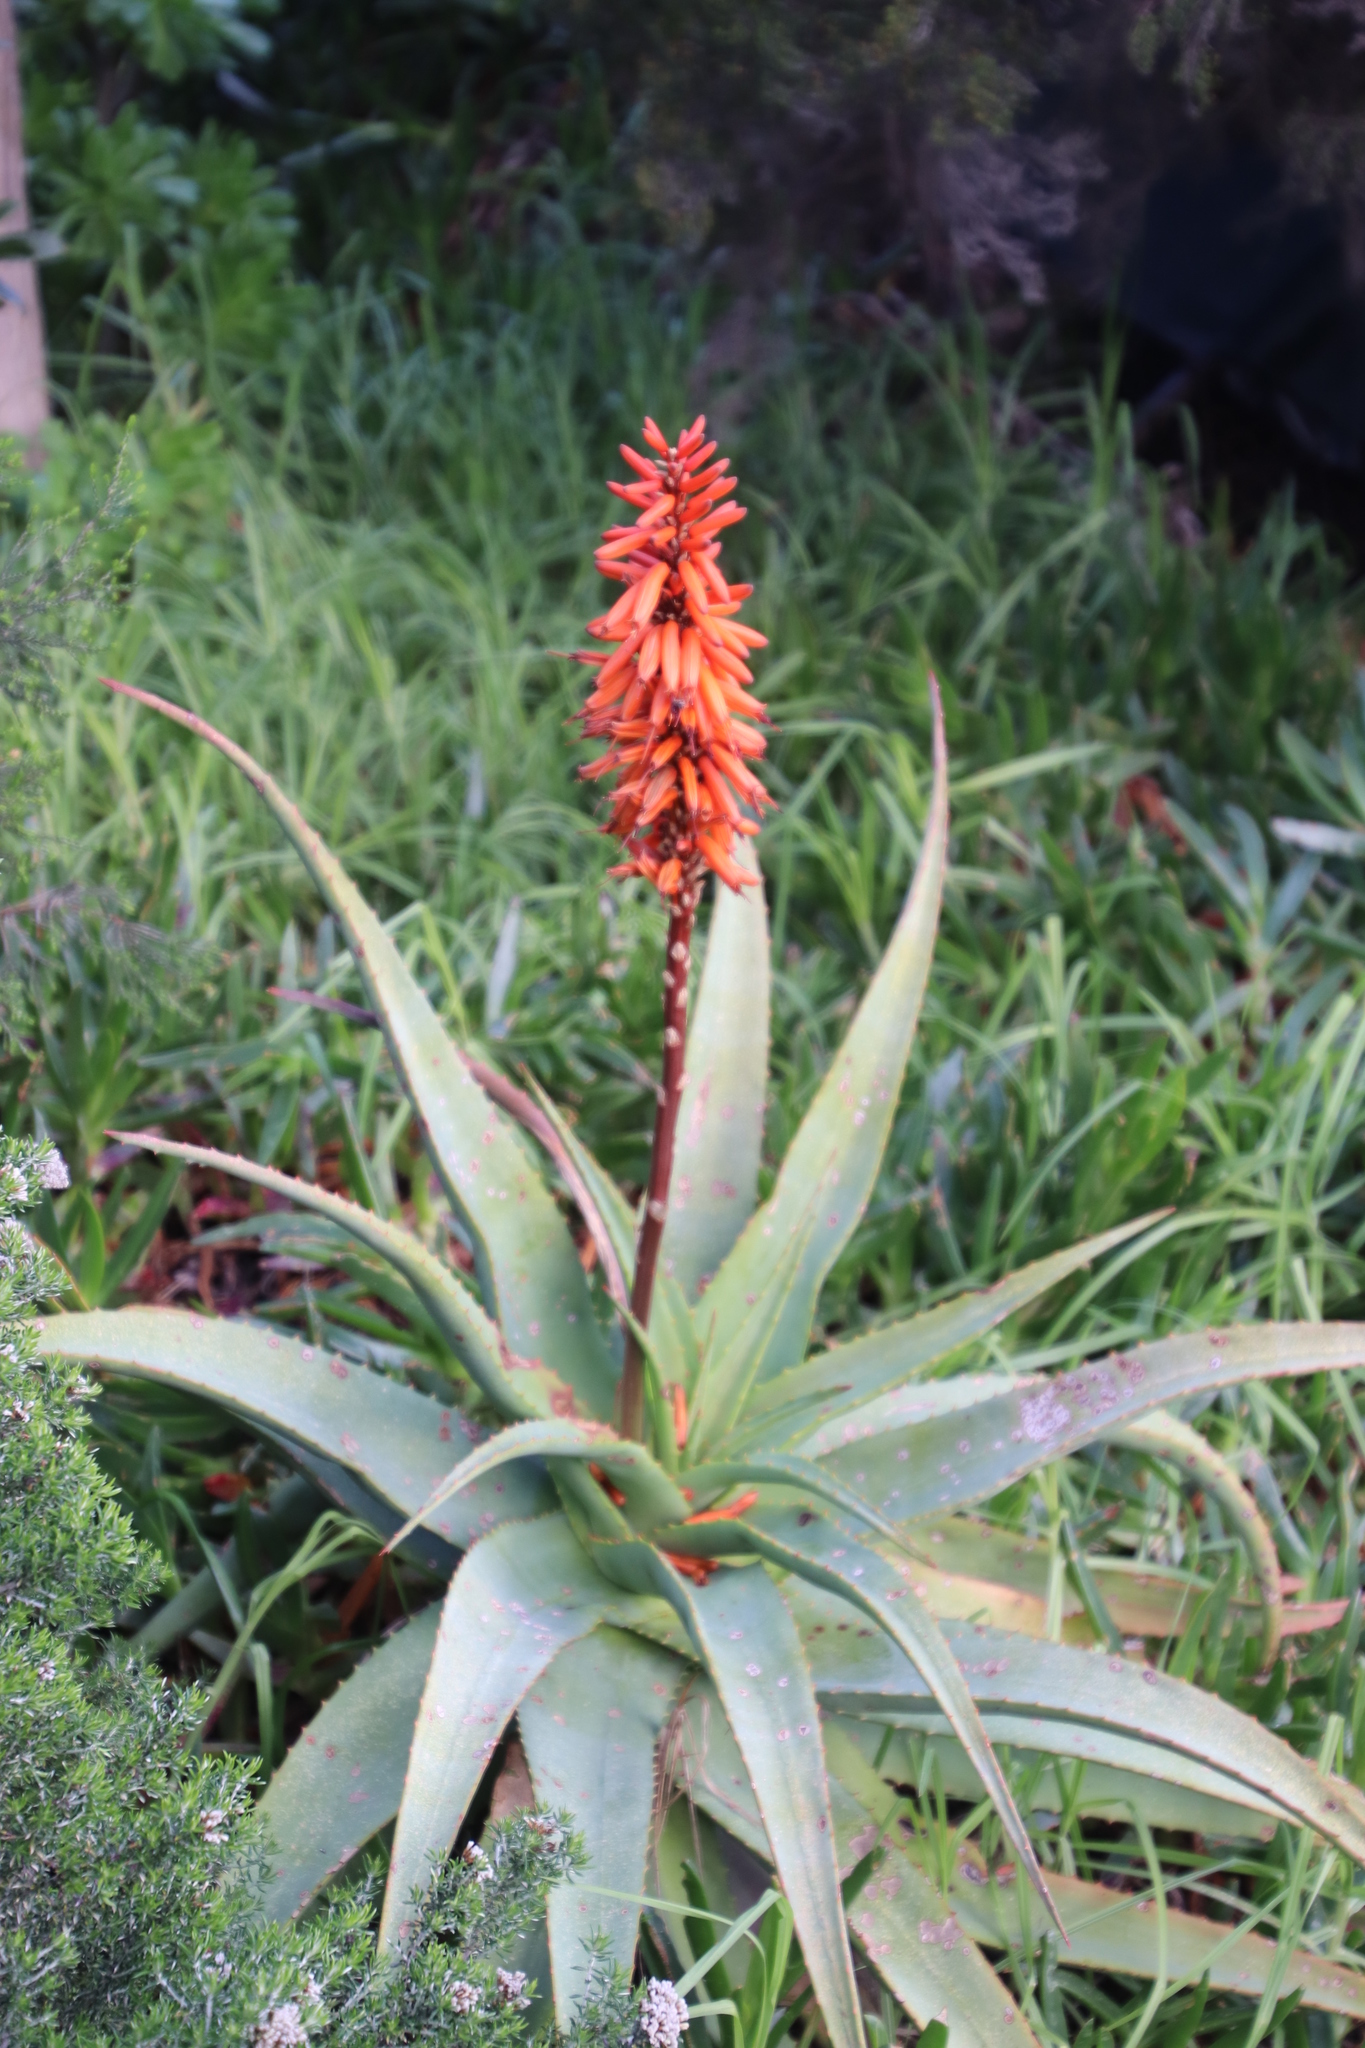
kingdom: Plantae
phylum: Tracheophyta
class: Liliopsida
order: Asparagales
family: Asphodelaceae
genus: Aloe
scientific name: Aloe arborescens
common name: Candelabra aloe
